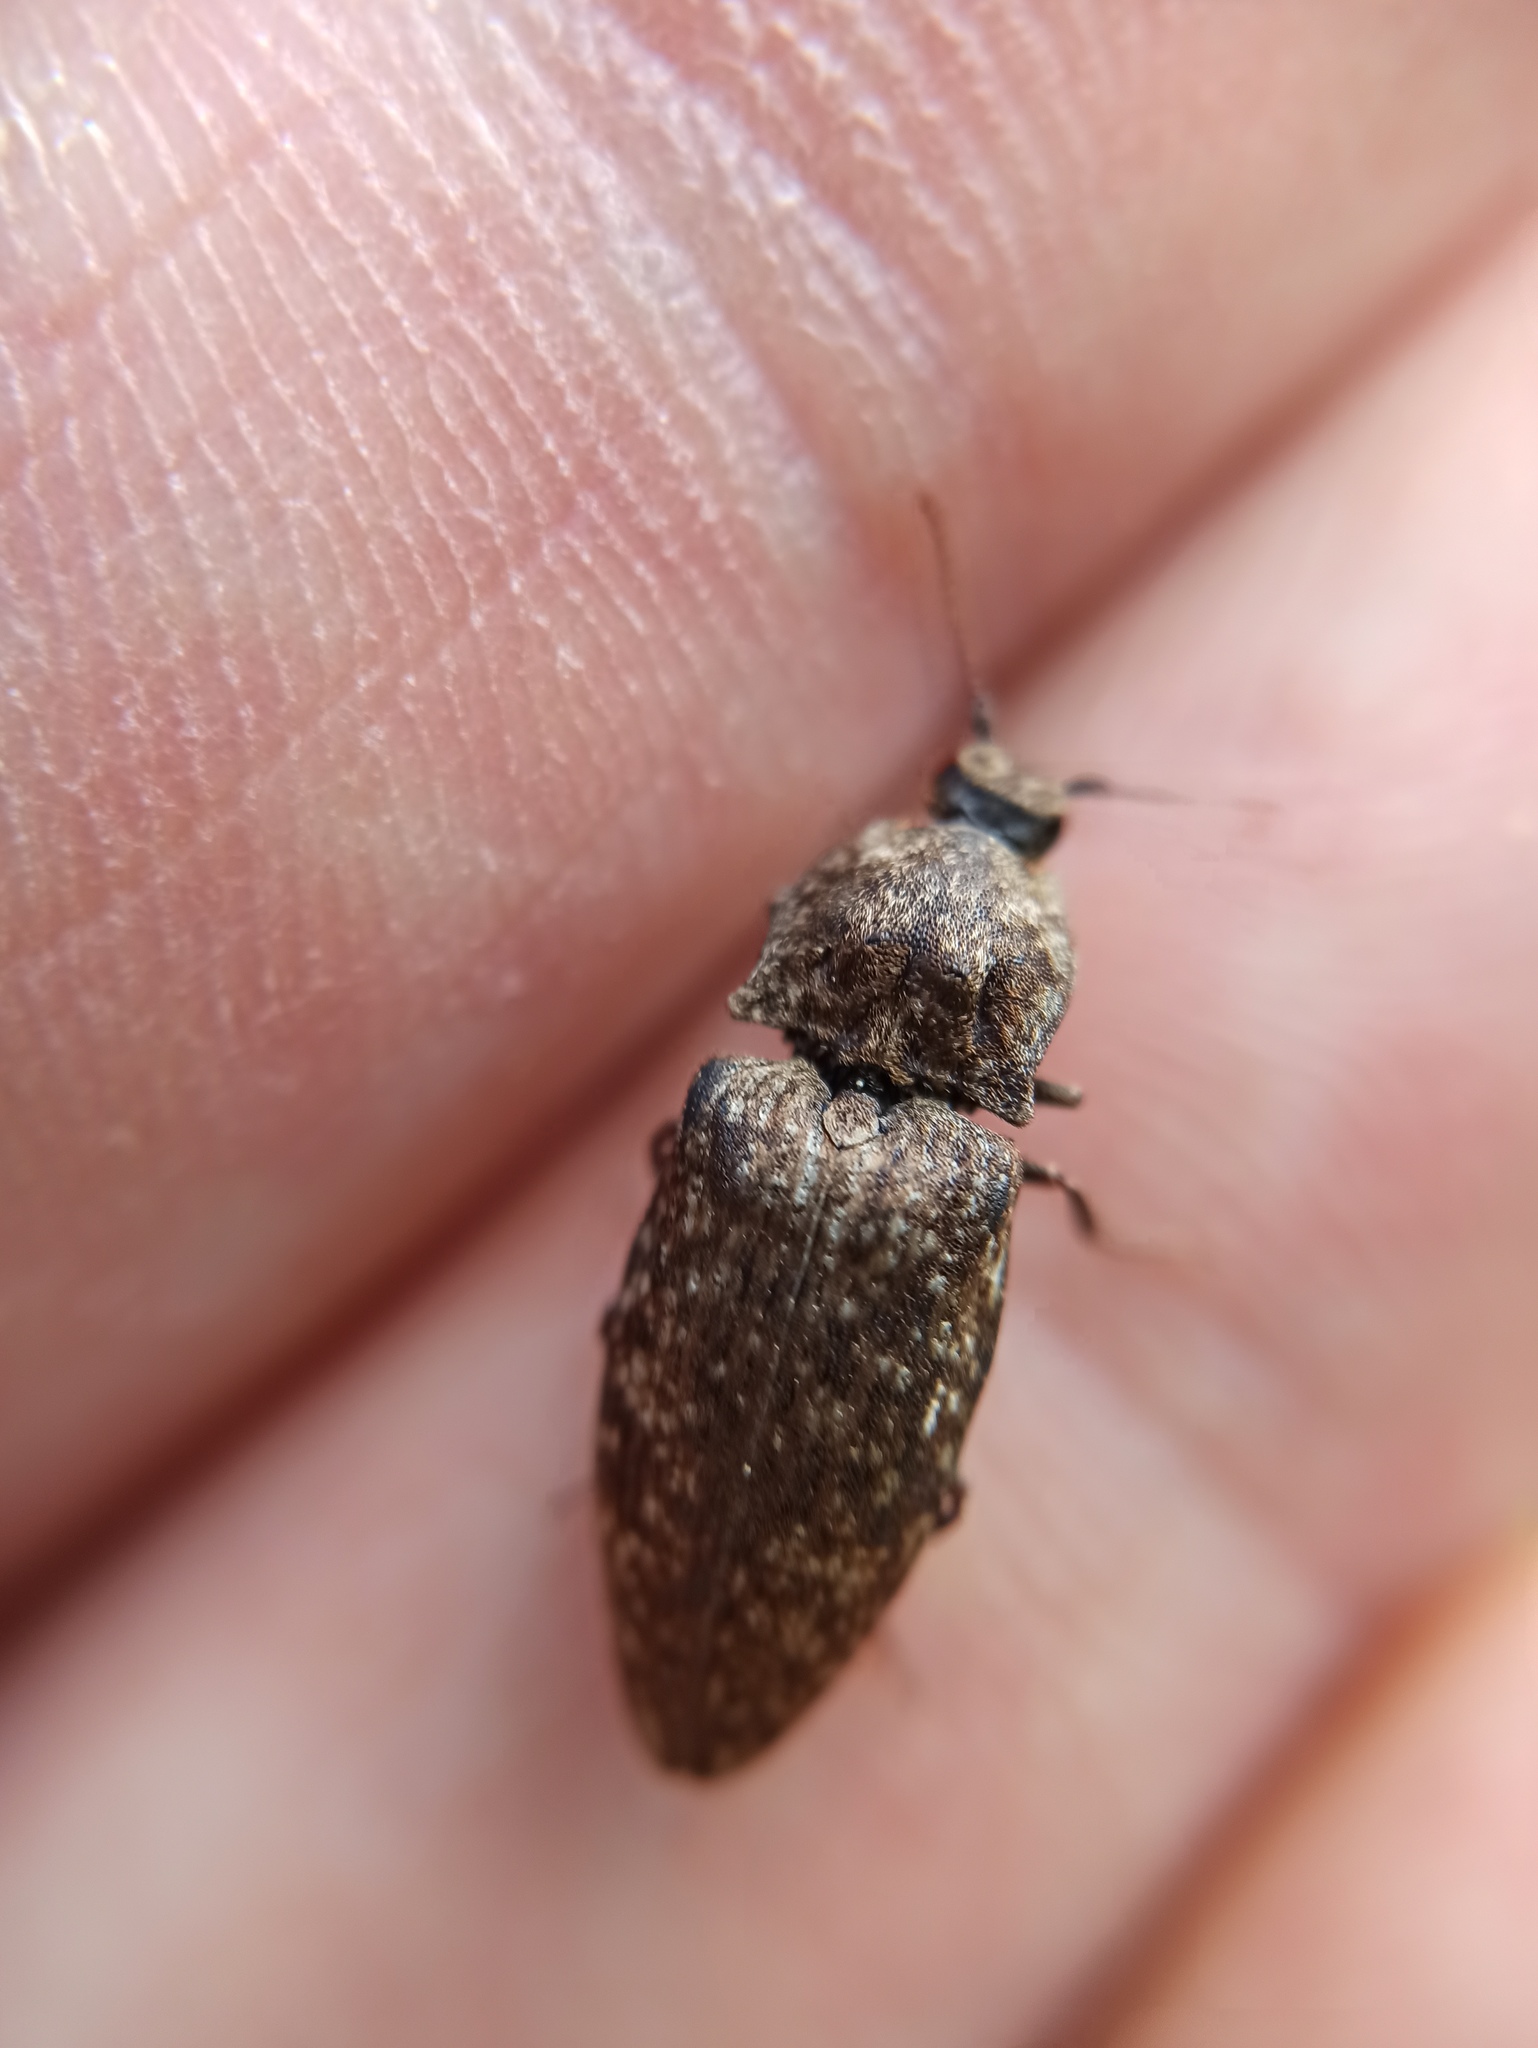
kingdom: Animalia
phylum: Arthropoda
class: Insecta
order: Coleoptera
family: Elateridae
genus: Agrypnus
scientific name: Agrypnus murinus
